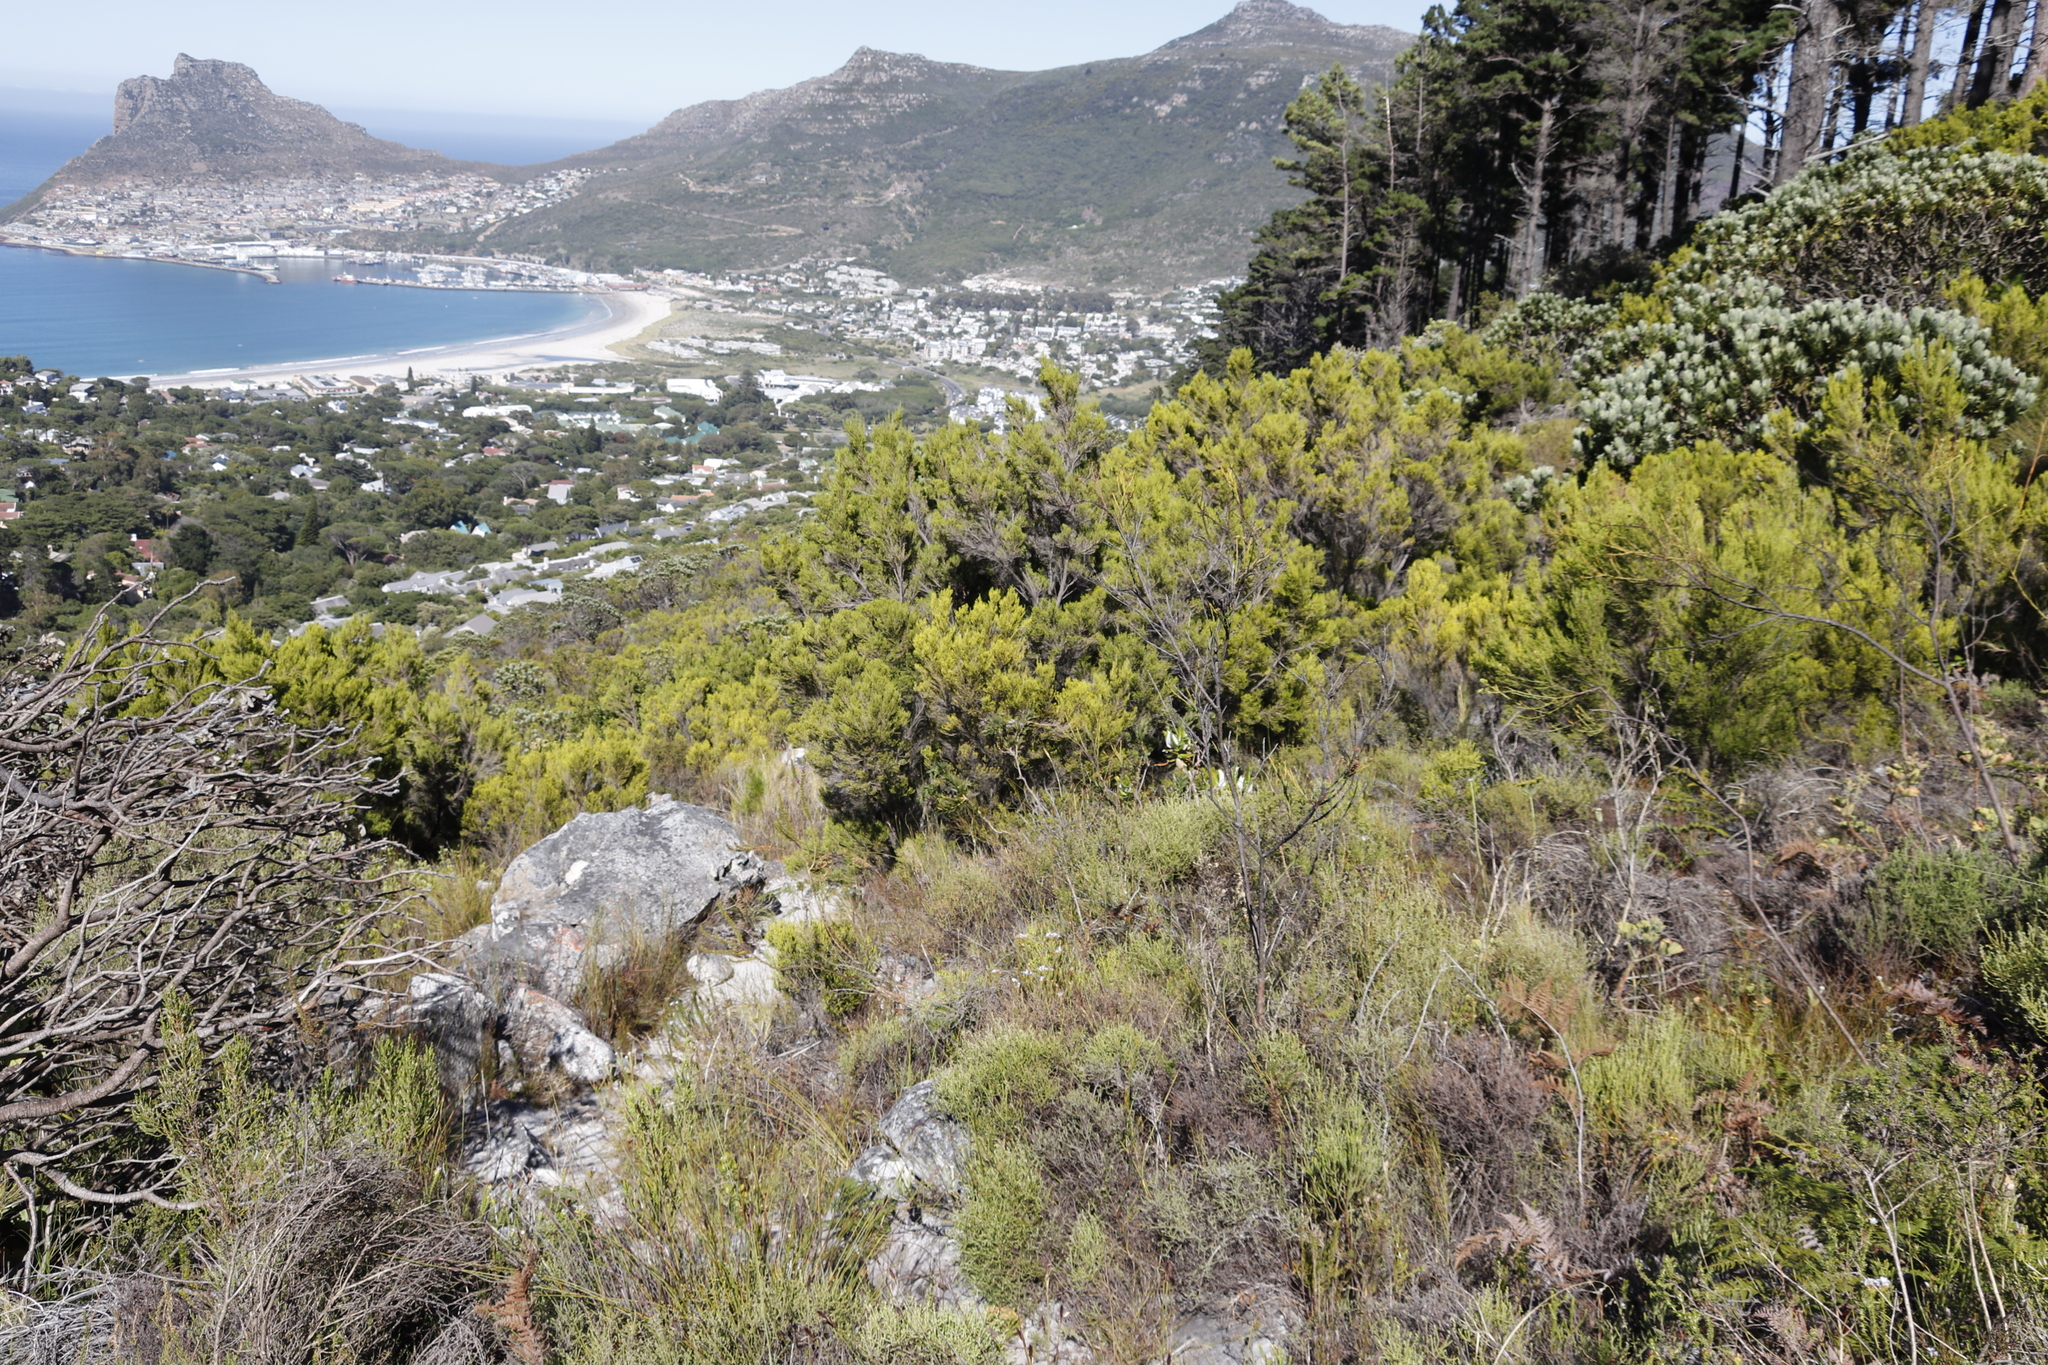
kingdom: Plantae
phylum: Tracheophyta
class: Magnoliopsida
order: Ericales
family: Ericaceae
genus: Erica
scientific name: Erica tristis
